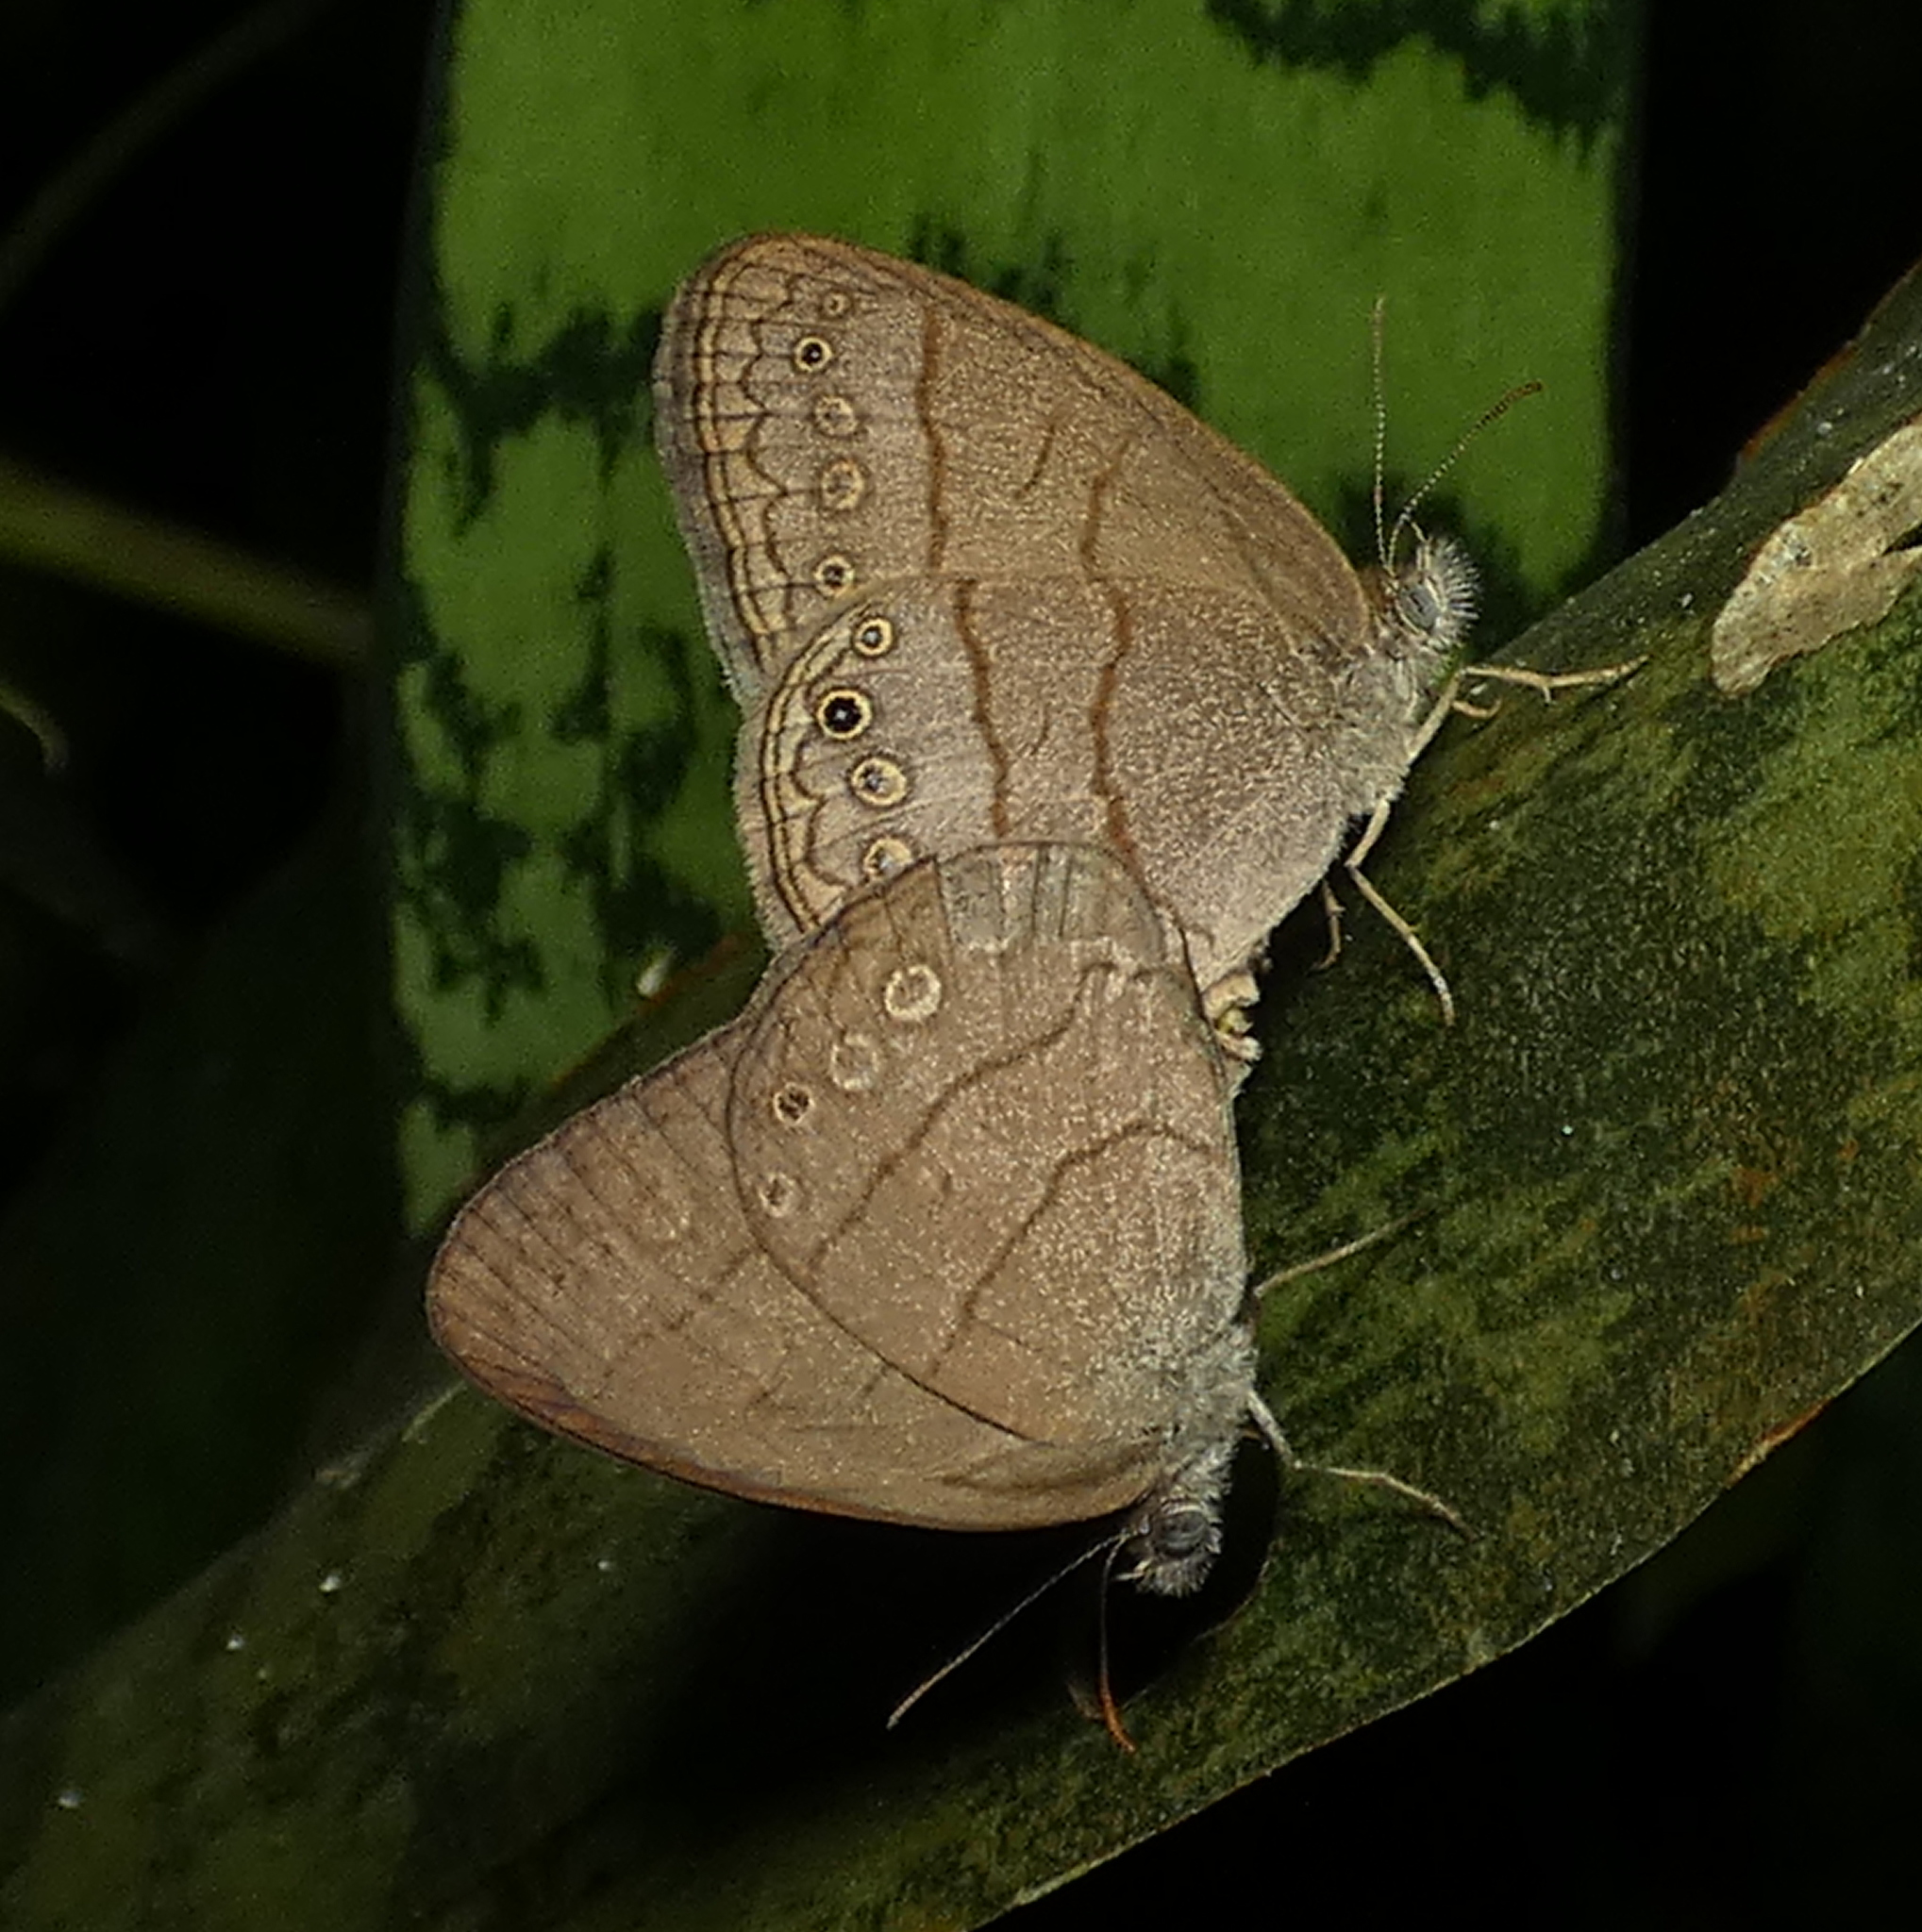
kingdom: Animalia
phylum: Arthropoda
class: Insecta
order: Lepidoptera
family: Nymphalidae
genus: Hermeuptychia
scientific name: Hermeuptychia hermes
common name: Hermes satyr
